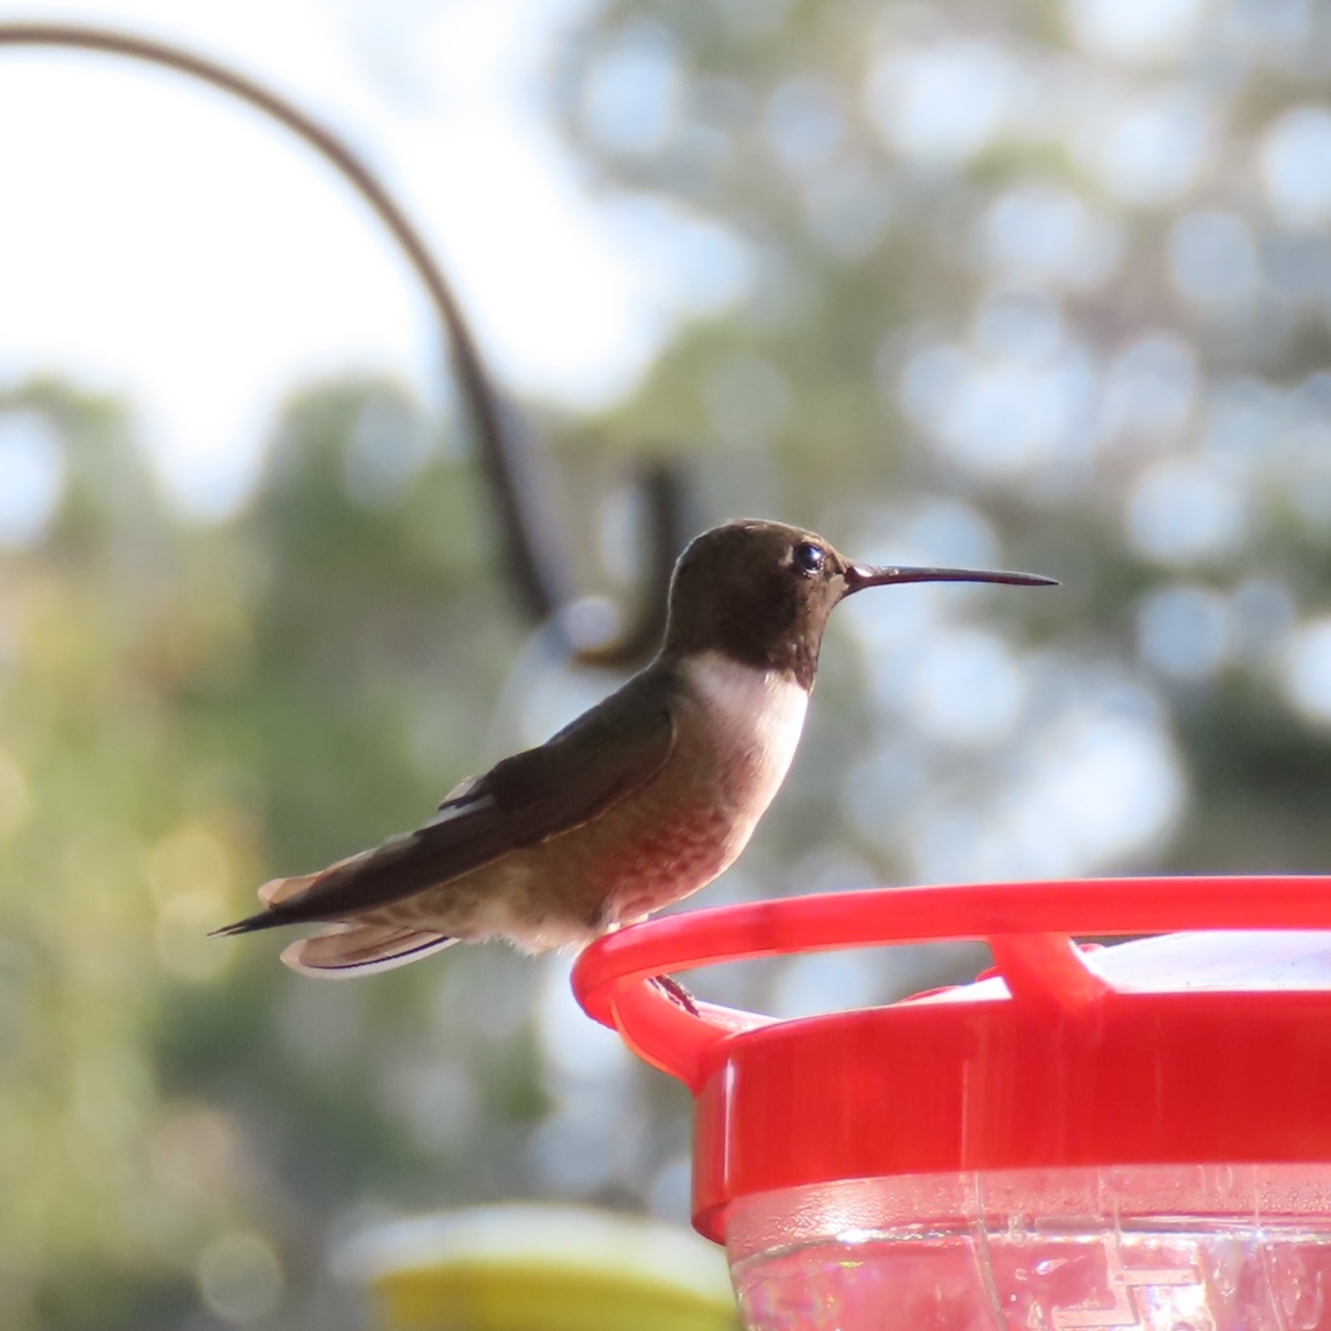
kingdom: Animalia
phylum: Chordata
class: Aves
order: Apodiformes
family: Trochilidae
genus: Archilochus
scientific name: Archilochus alexandri
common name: Black-chinned hummingbird
